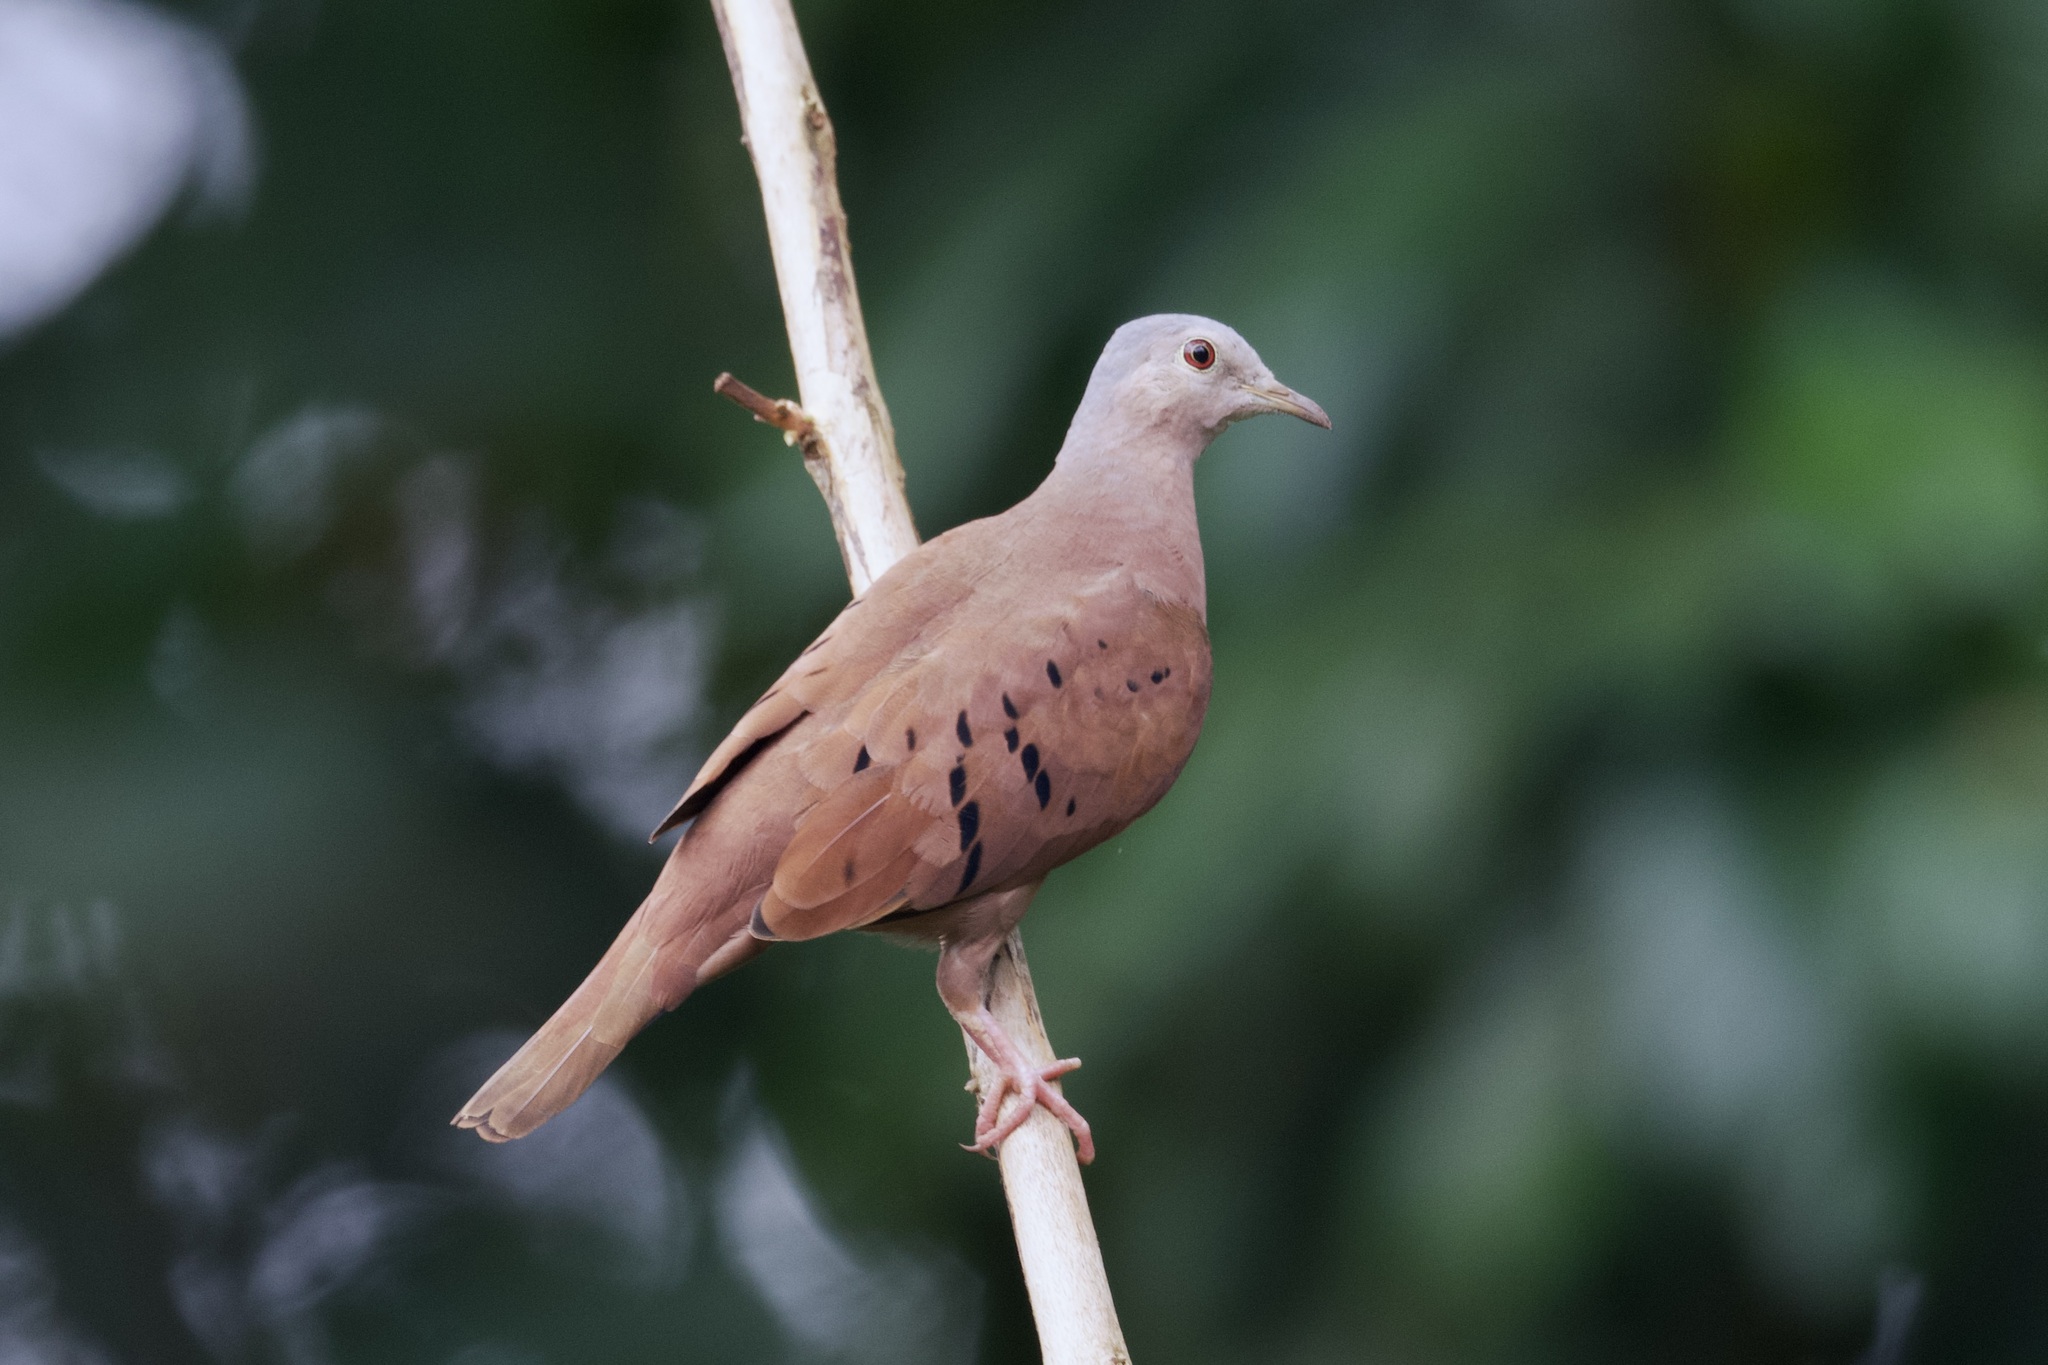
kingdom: Animalia
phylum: Chordata
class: Aves
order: Columbiformes
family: Columbidae
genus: Columbina
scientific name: Columbina talpacoti
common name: Ruddy ground dove
